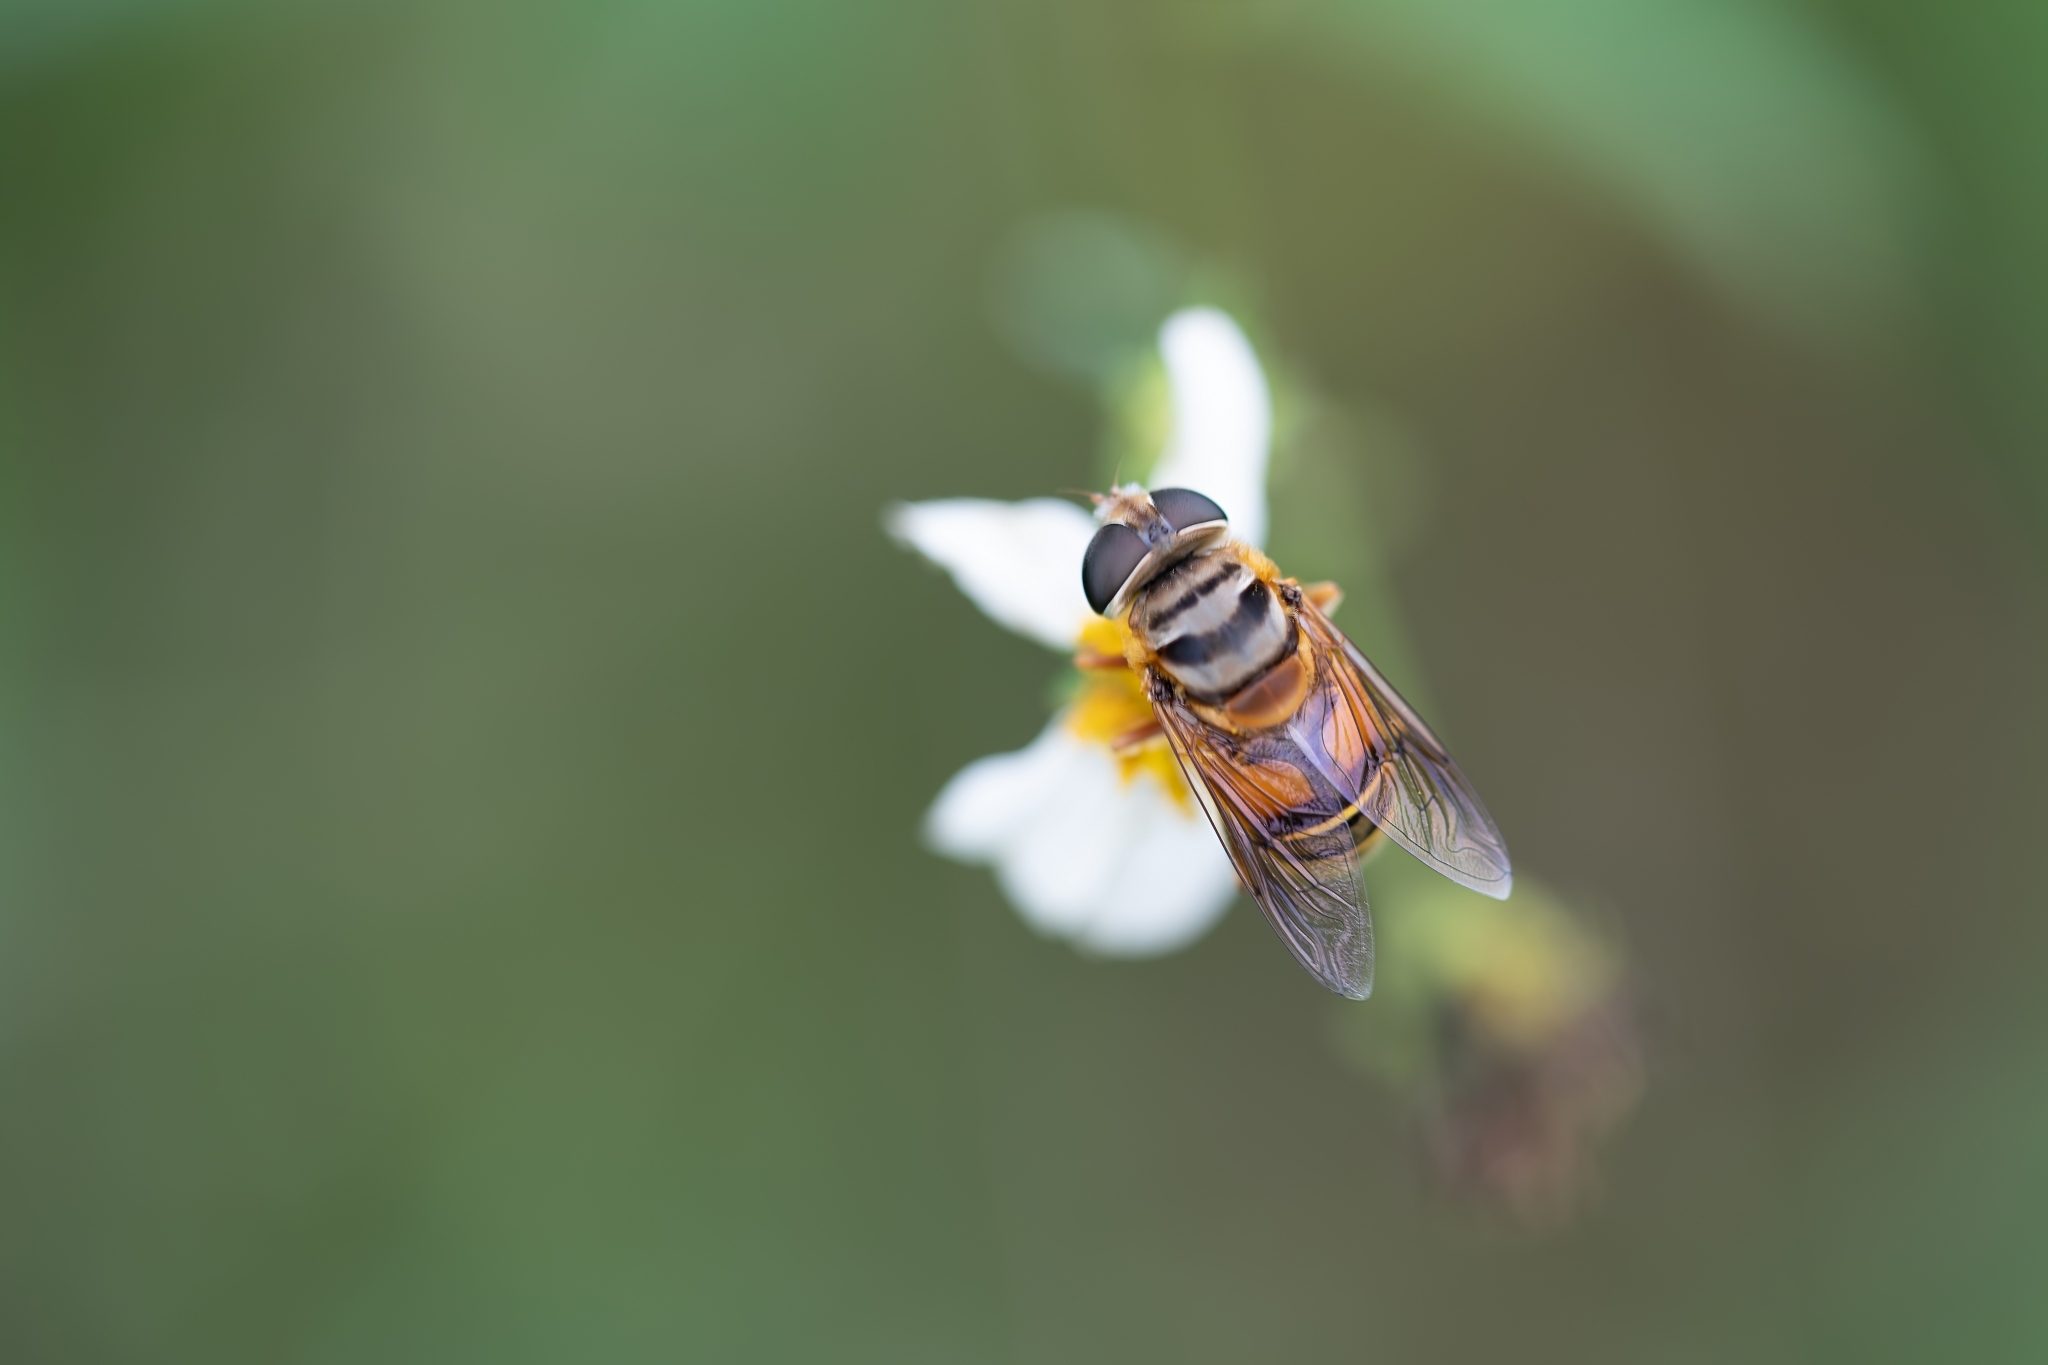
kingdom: Animalia
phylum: Arthropoda
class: Insecta
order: Diptera
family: Syrphidae
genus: Palpada
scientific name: Palpada vinetorum
